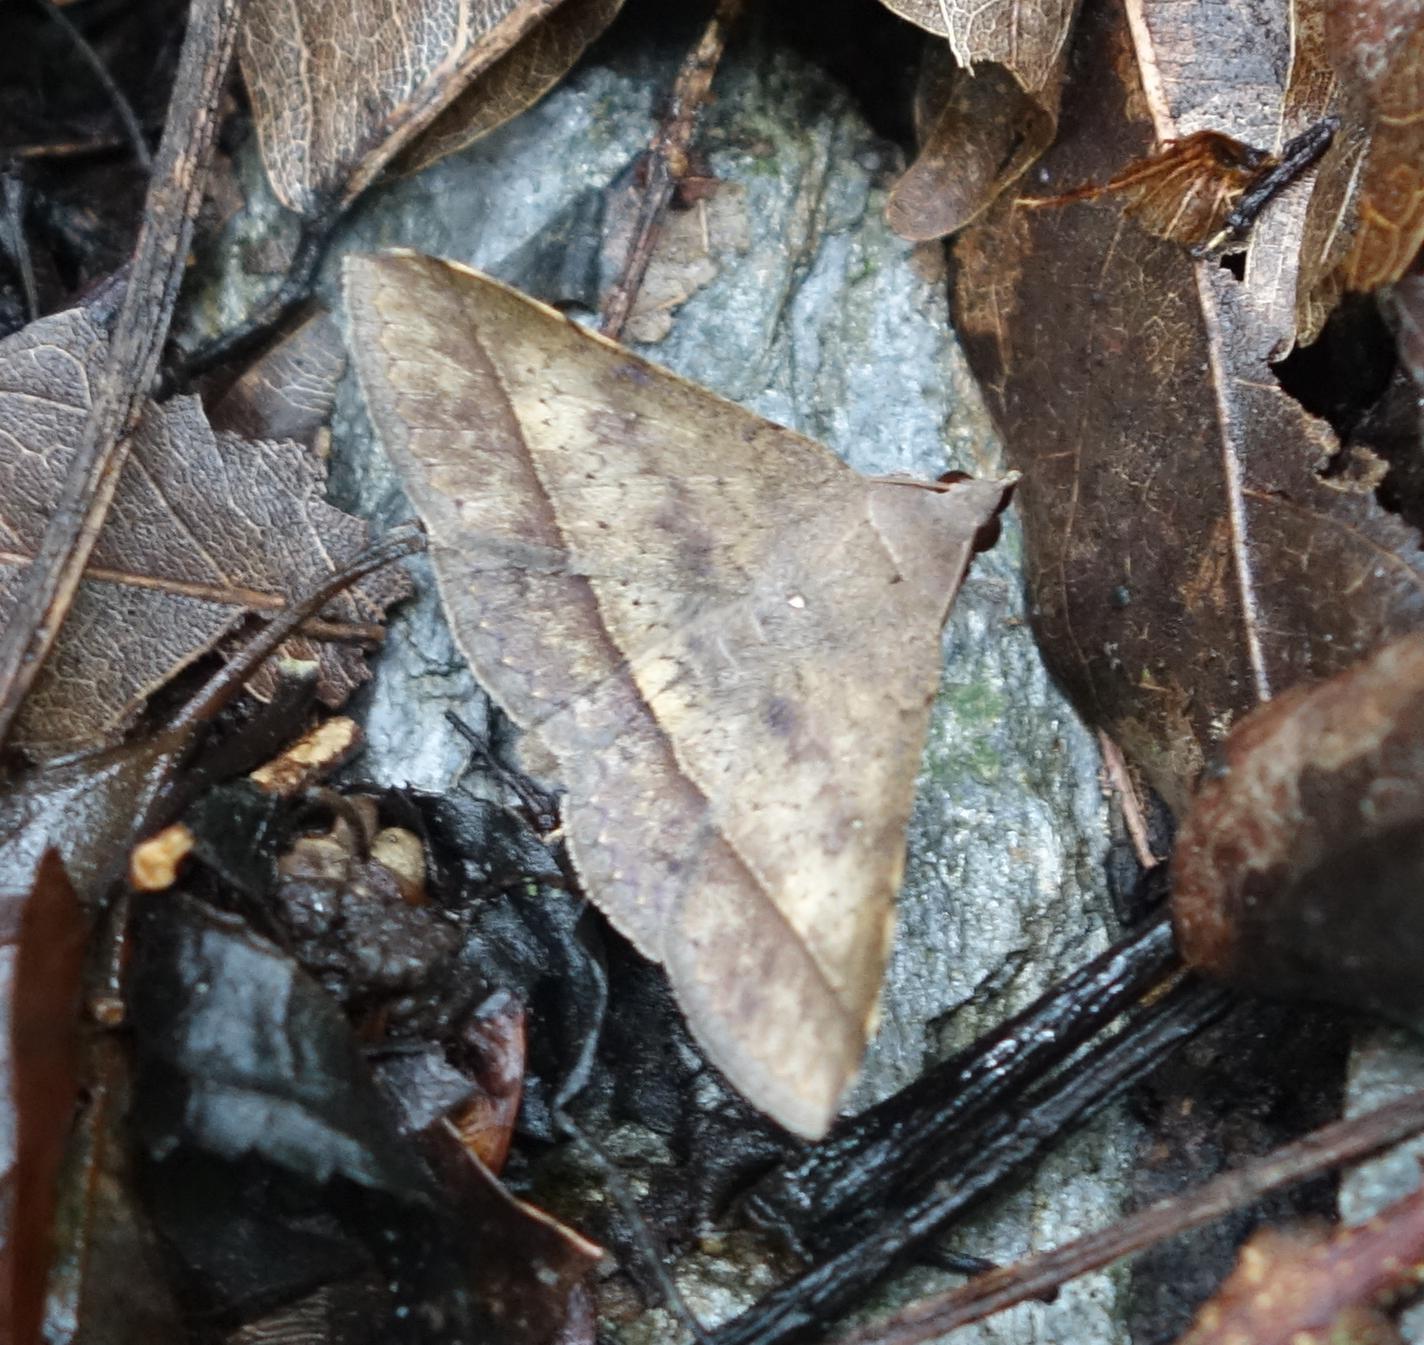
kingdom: Animalia
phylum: Arthropoda
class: Insecta
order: Lepidoptera
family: Erebidae
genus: Hypospila
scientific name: Hypospila bolinoides
